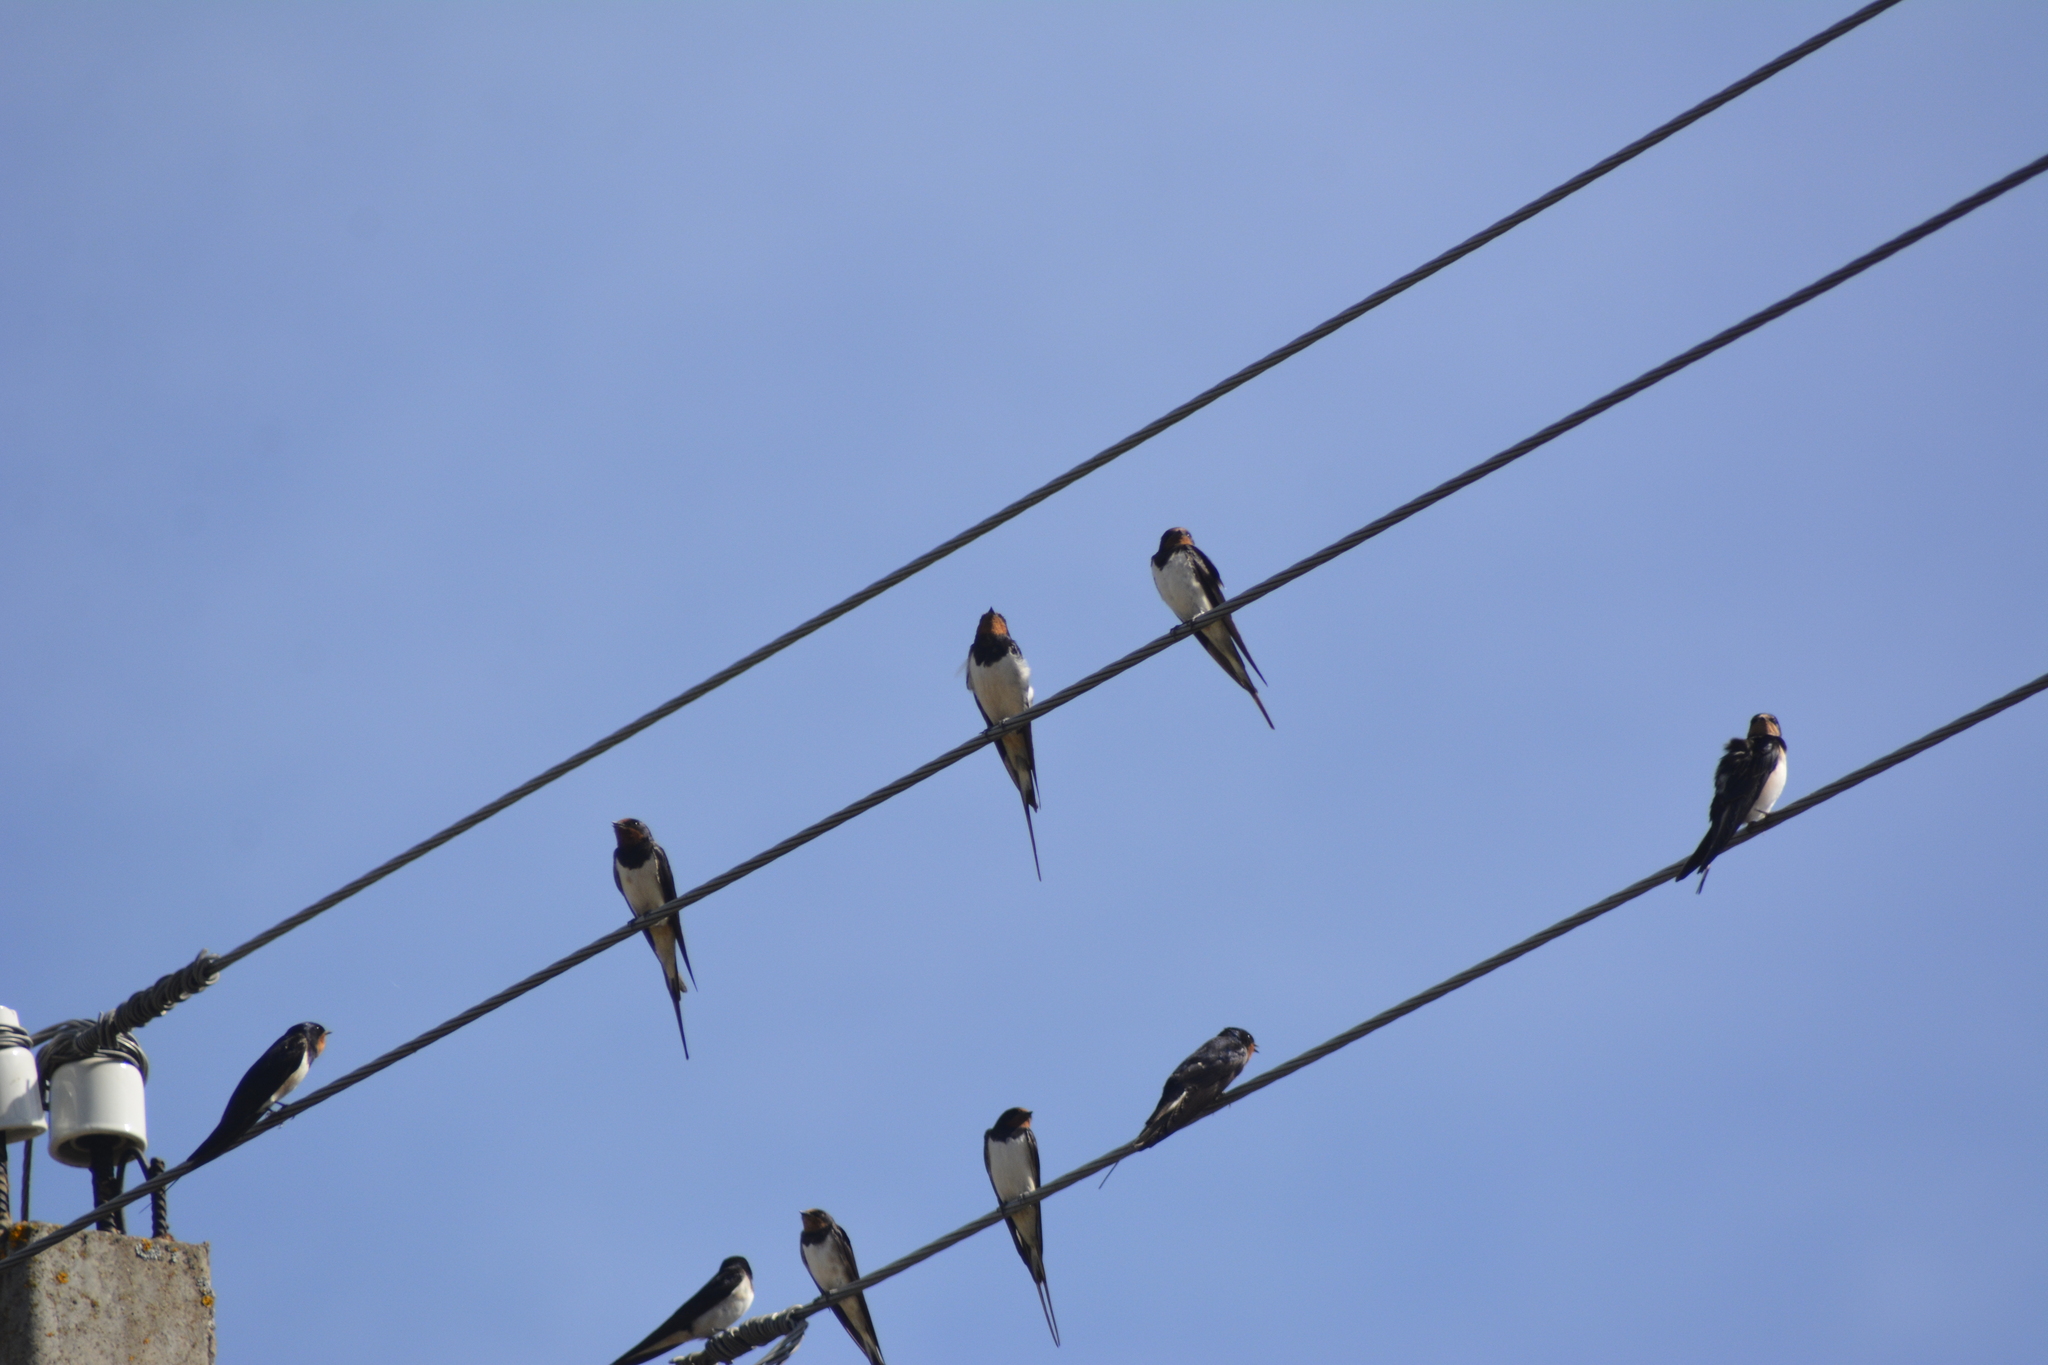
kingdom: Animalia
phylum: Chordata
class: Aves
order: Passeriformes
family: Hirundinidae
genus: Hirundo
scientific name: Hirundo rustica
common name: Barn swallow
